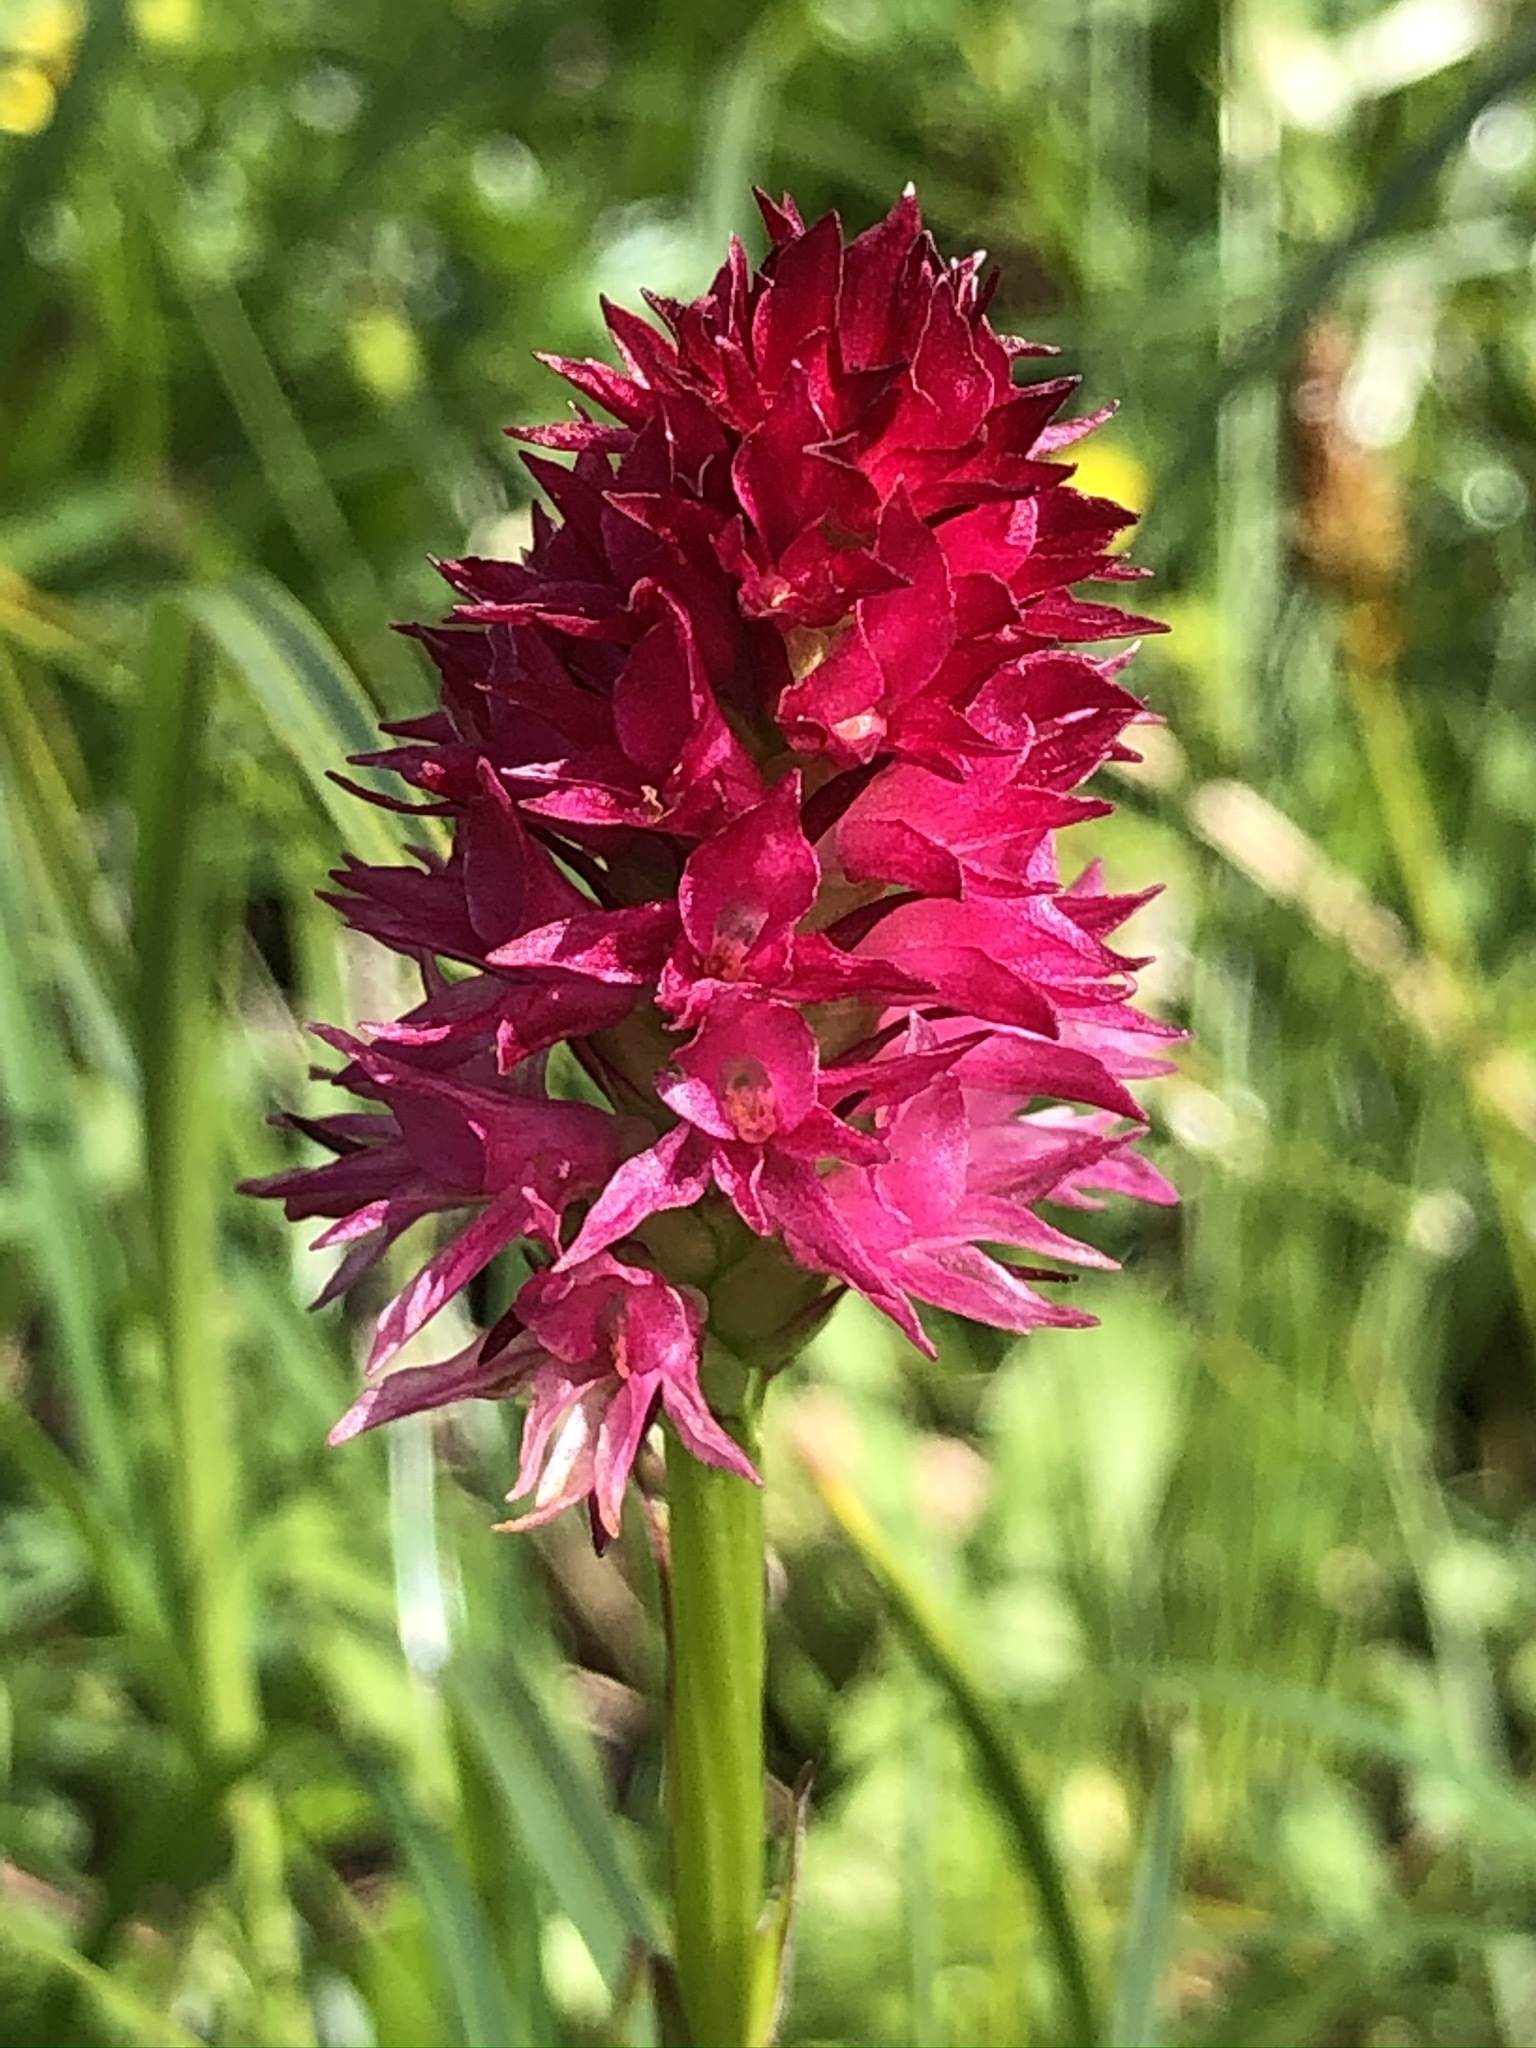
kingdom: Plantae
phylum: Tracheophyta
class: Liliopsida
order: Asparagales
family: Orchidaceae
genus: Gymnadenia
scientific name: Gymnadenia miniata
